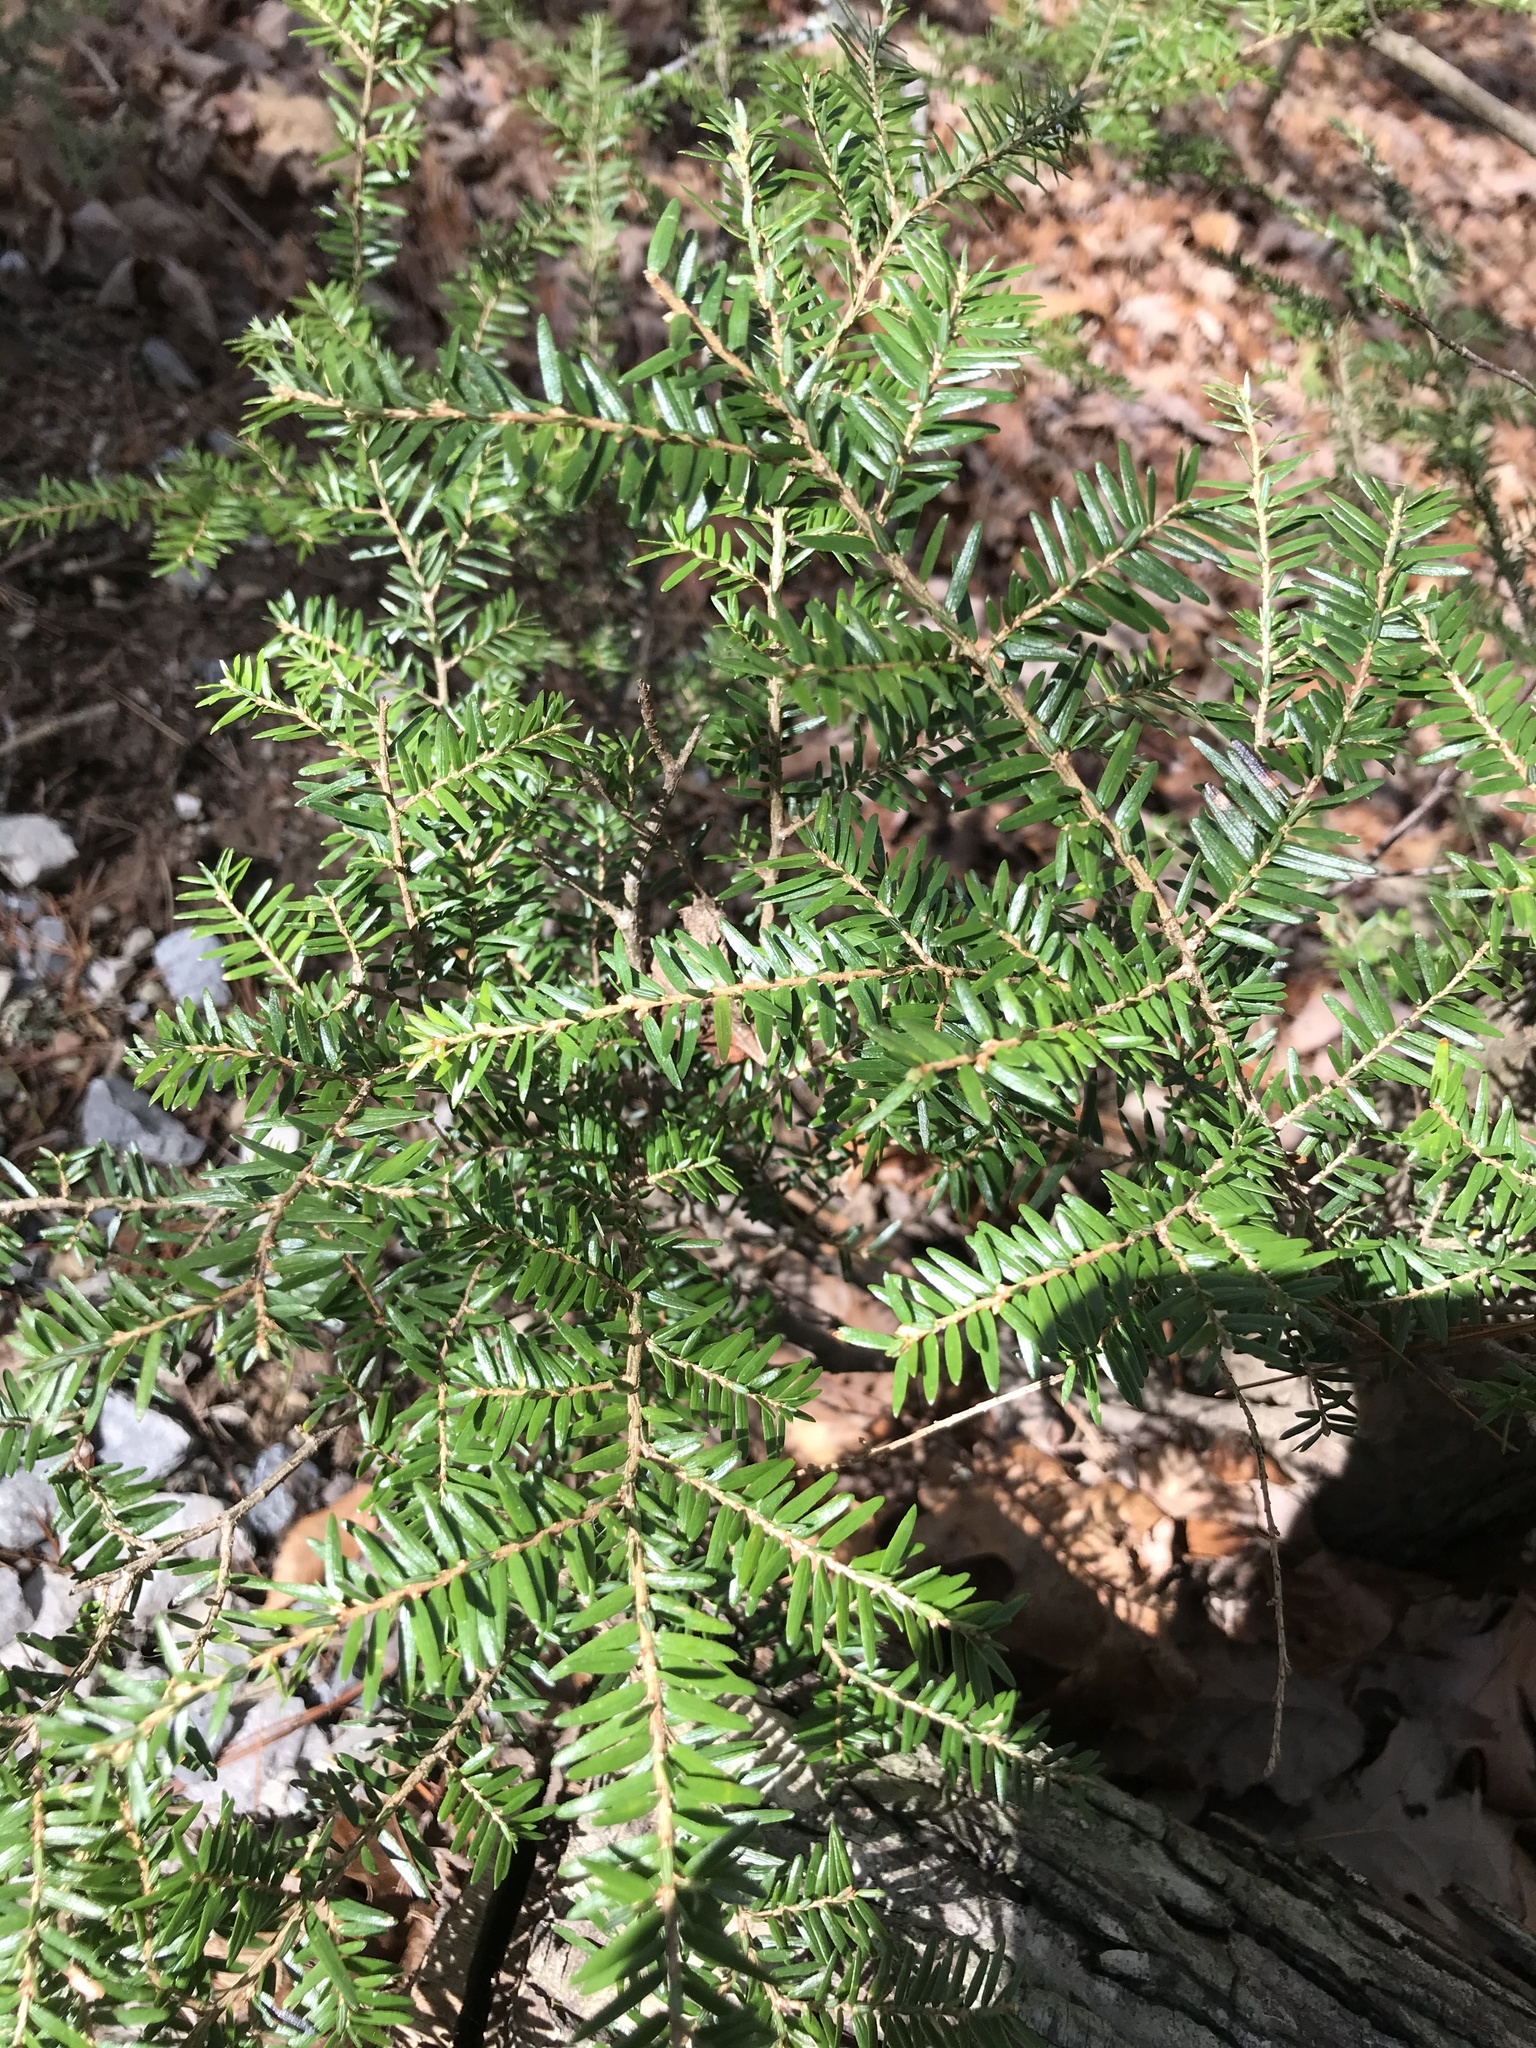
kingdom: Plantae
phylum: Tracheophyta
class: Pinopsida
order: Pinales
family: Pinaceae
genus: Tsuga
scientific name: Tsuga canadensis
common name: Eastern hemlock
